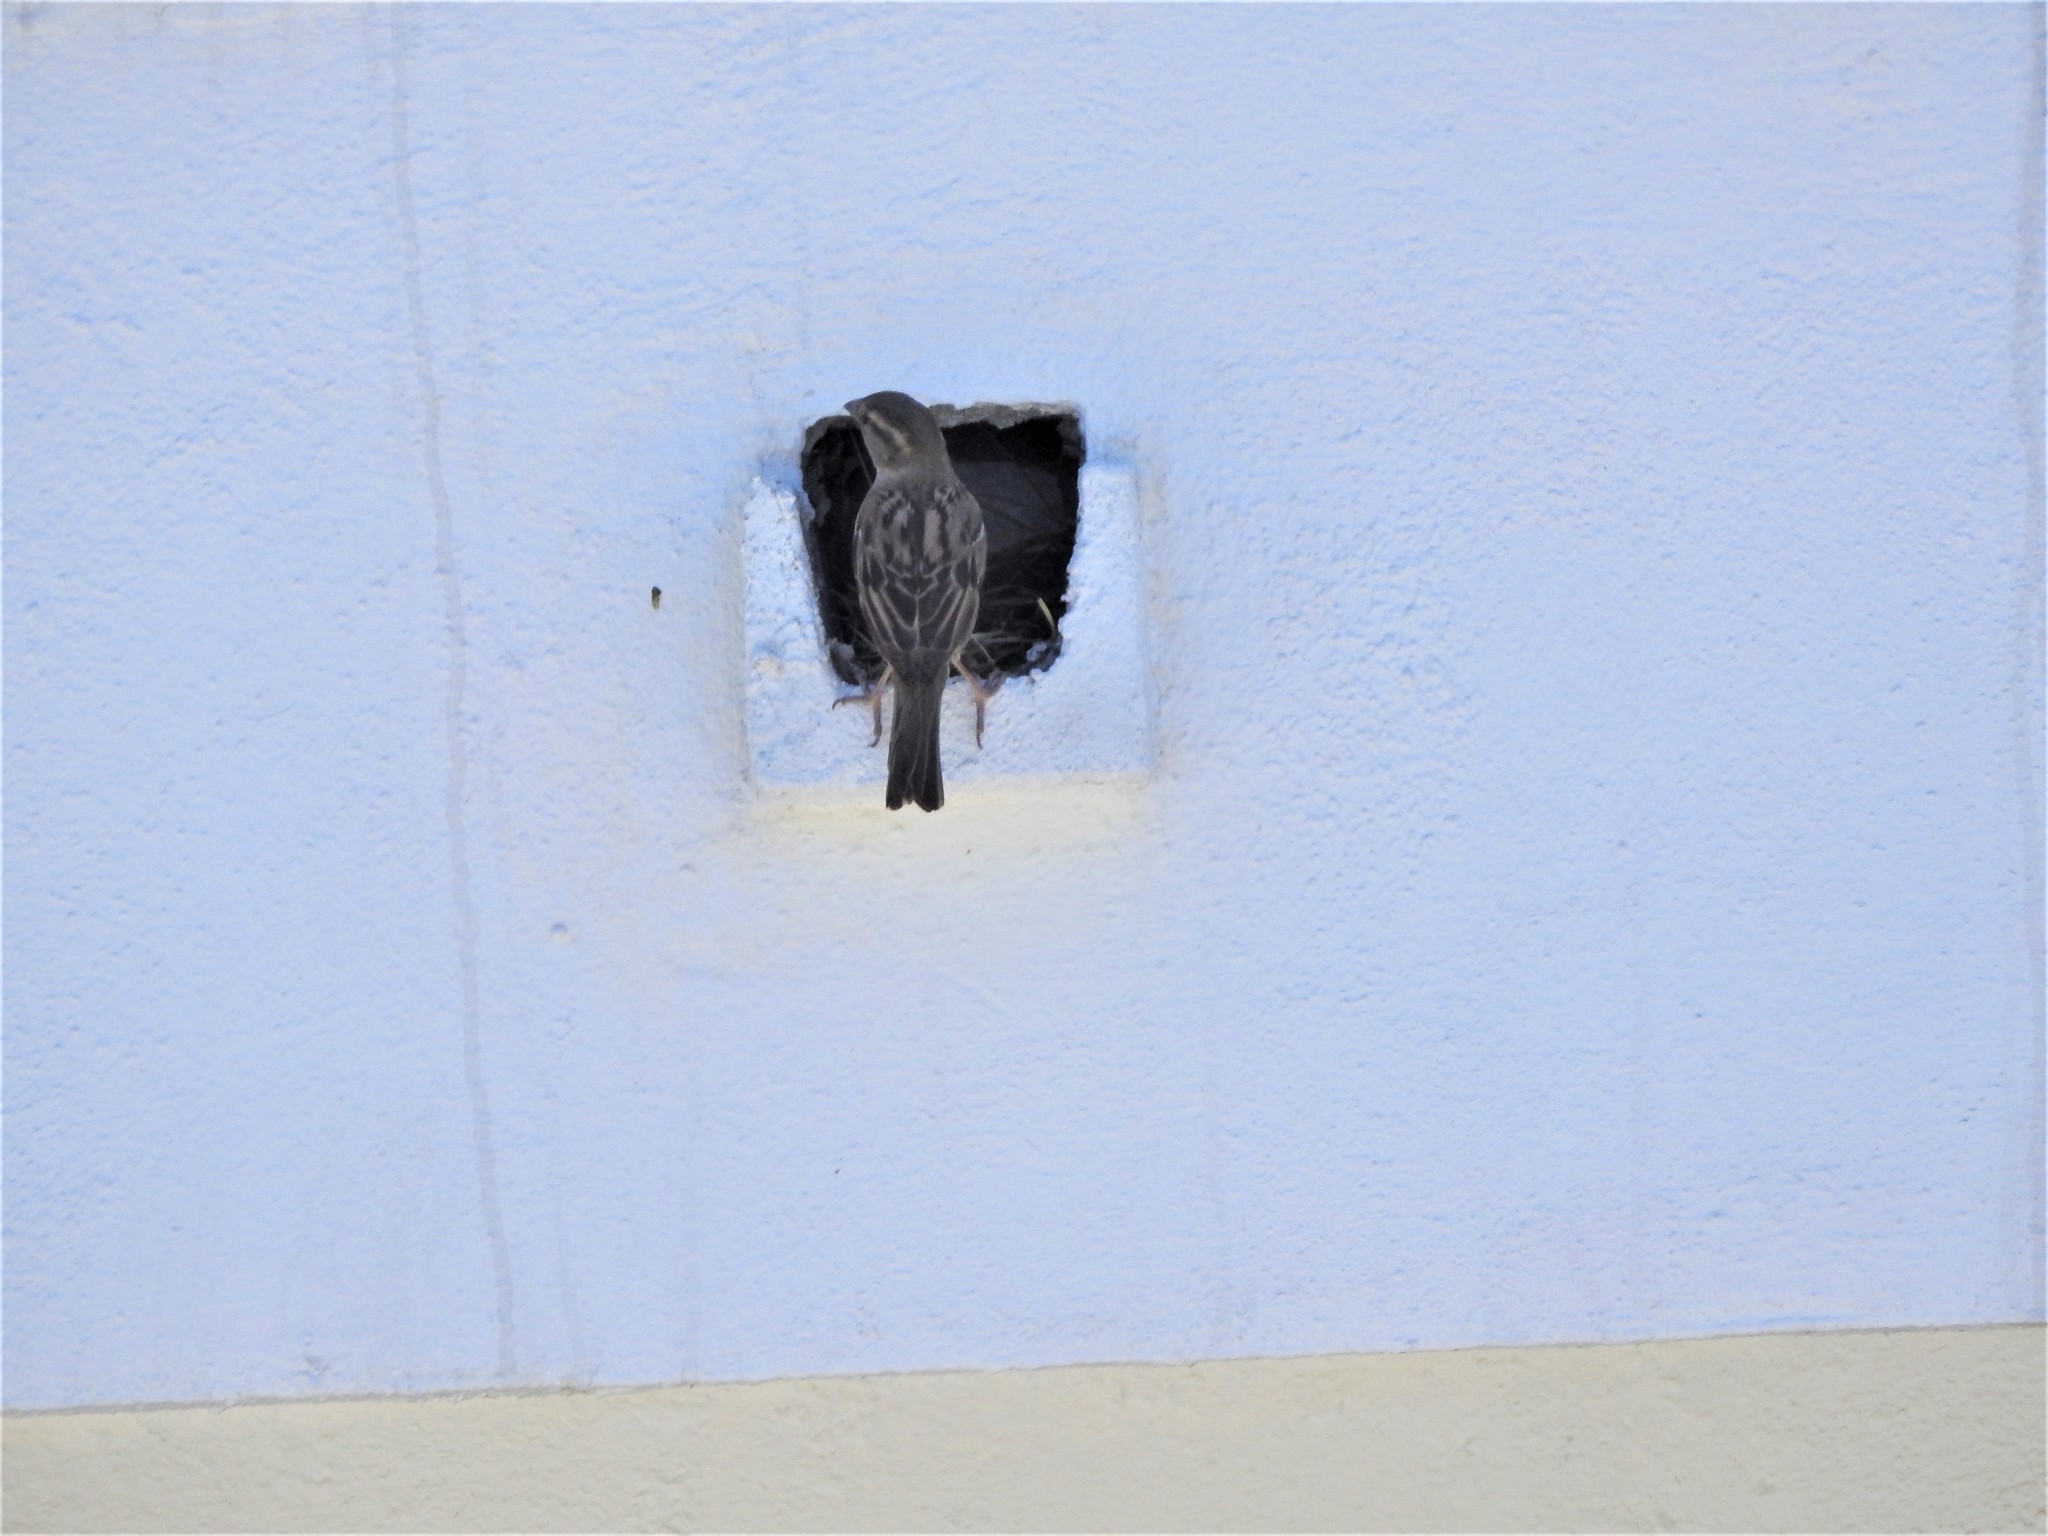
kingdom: Animalia
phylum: Chordata
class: Aves
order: Passeriformes
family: Passeridae
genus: Passer
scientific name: Passer domesticus
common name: House sparrow
